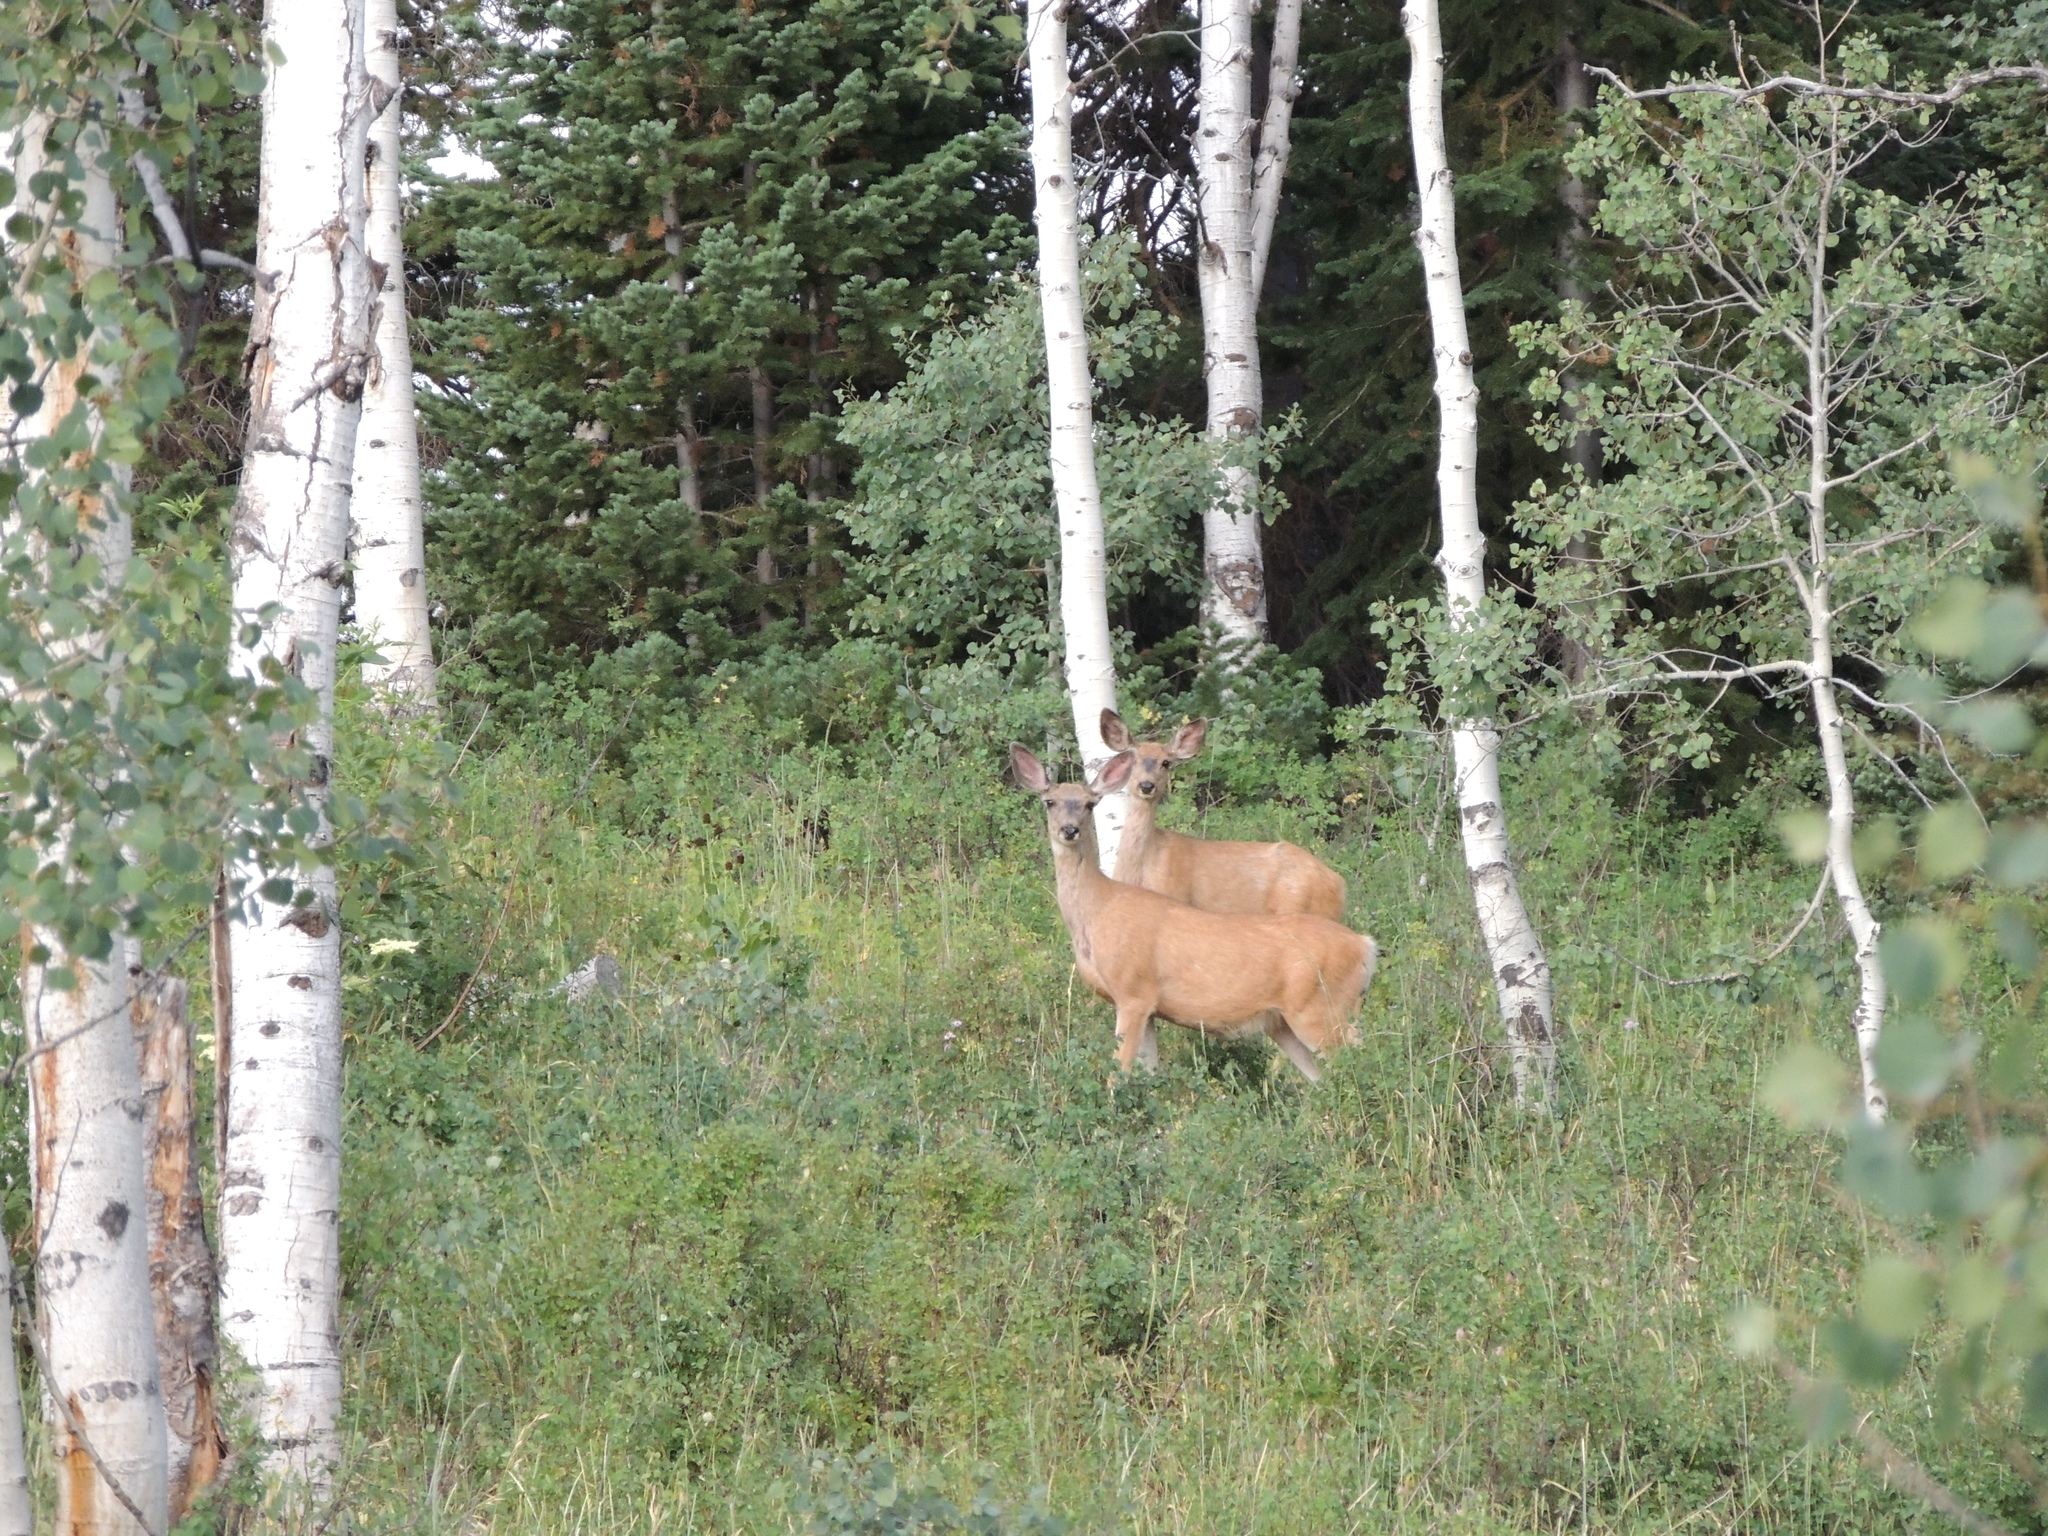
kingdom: Animalia
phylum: Chordata
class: Mammalia
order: Artiodactyla
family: Cervidae
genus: Odocoileus
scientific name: Odocoileus hemionus
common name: Mule deer
